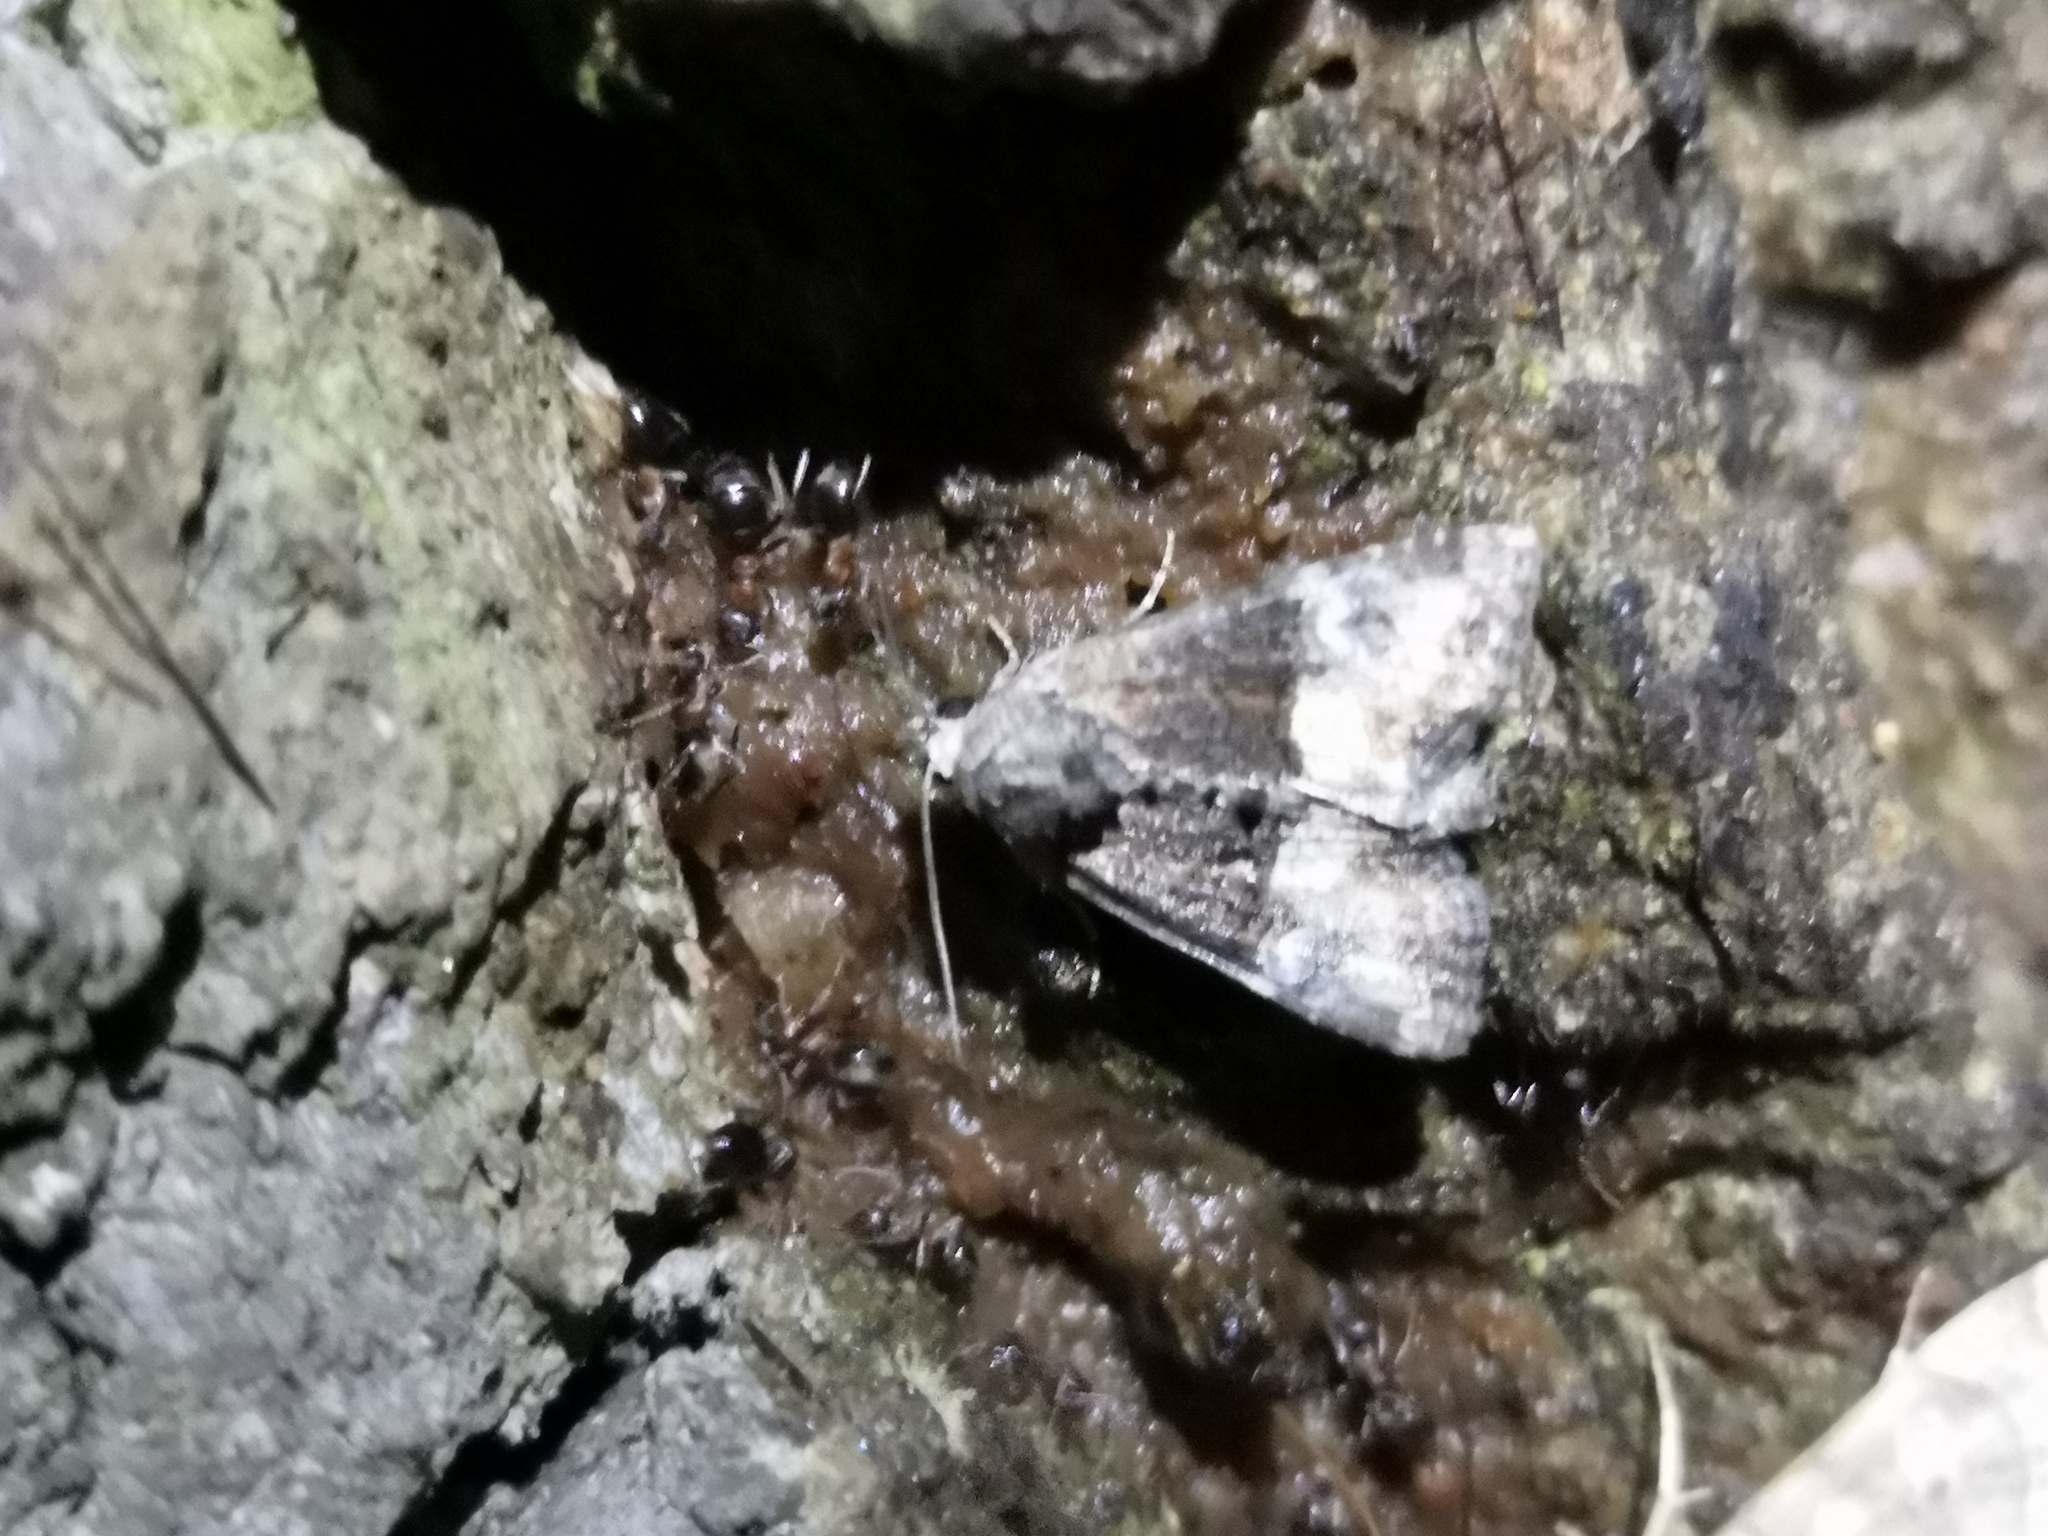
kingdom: Animalia
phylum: Arthropoda
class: Insecta
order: Lepidoptera
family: Noctuidae
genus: Mesoligia
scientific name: Mesoligia furuncula
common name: Cloaked minor
